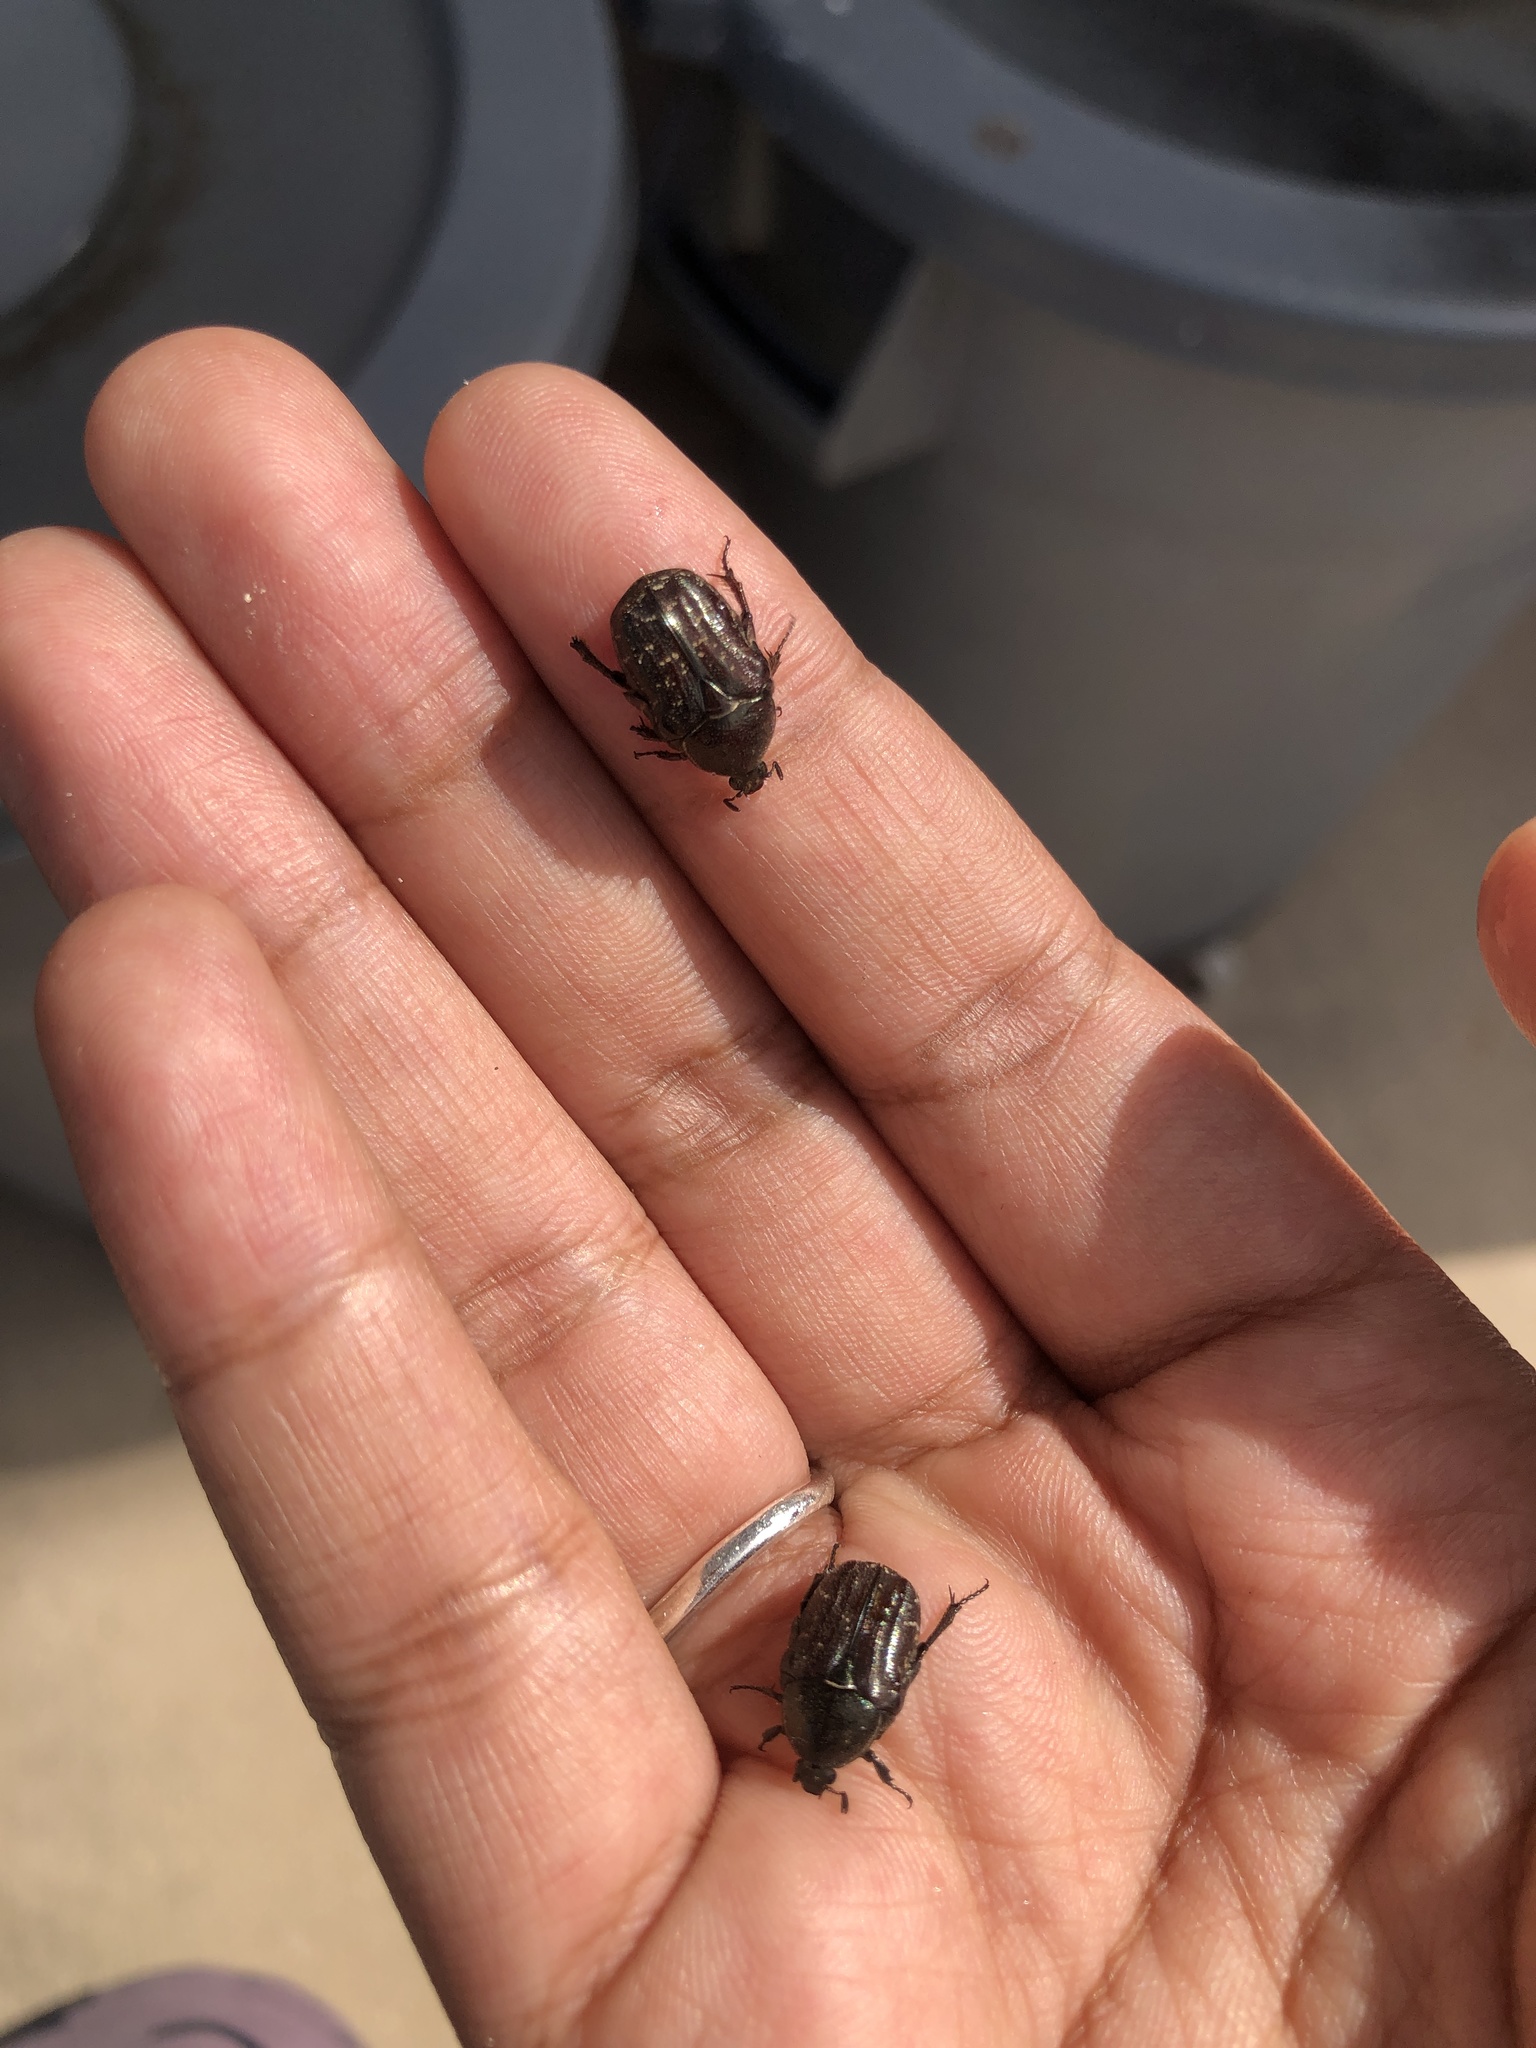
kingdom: Animalia
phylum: Arthropoda
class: Insecta
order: Coleoptera
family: Scarabaeidae
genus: Euphoria
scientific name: Euphoria sepulcralis
